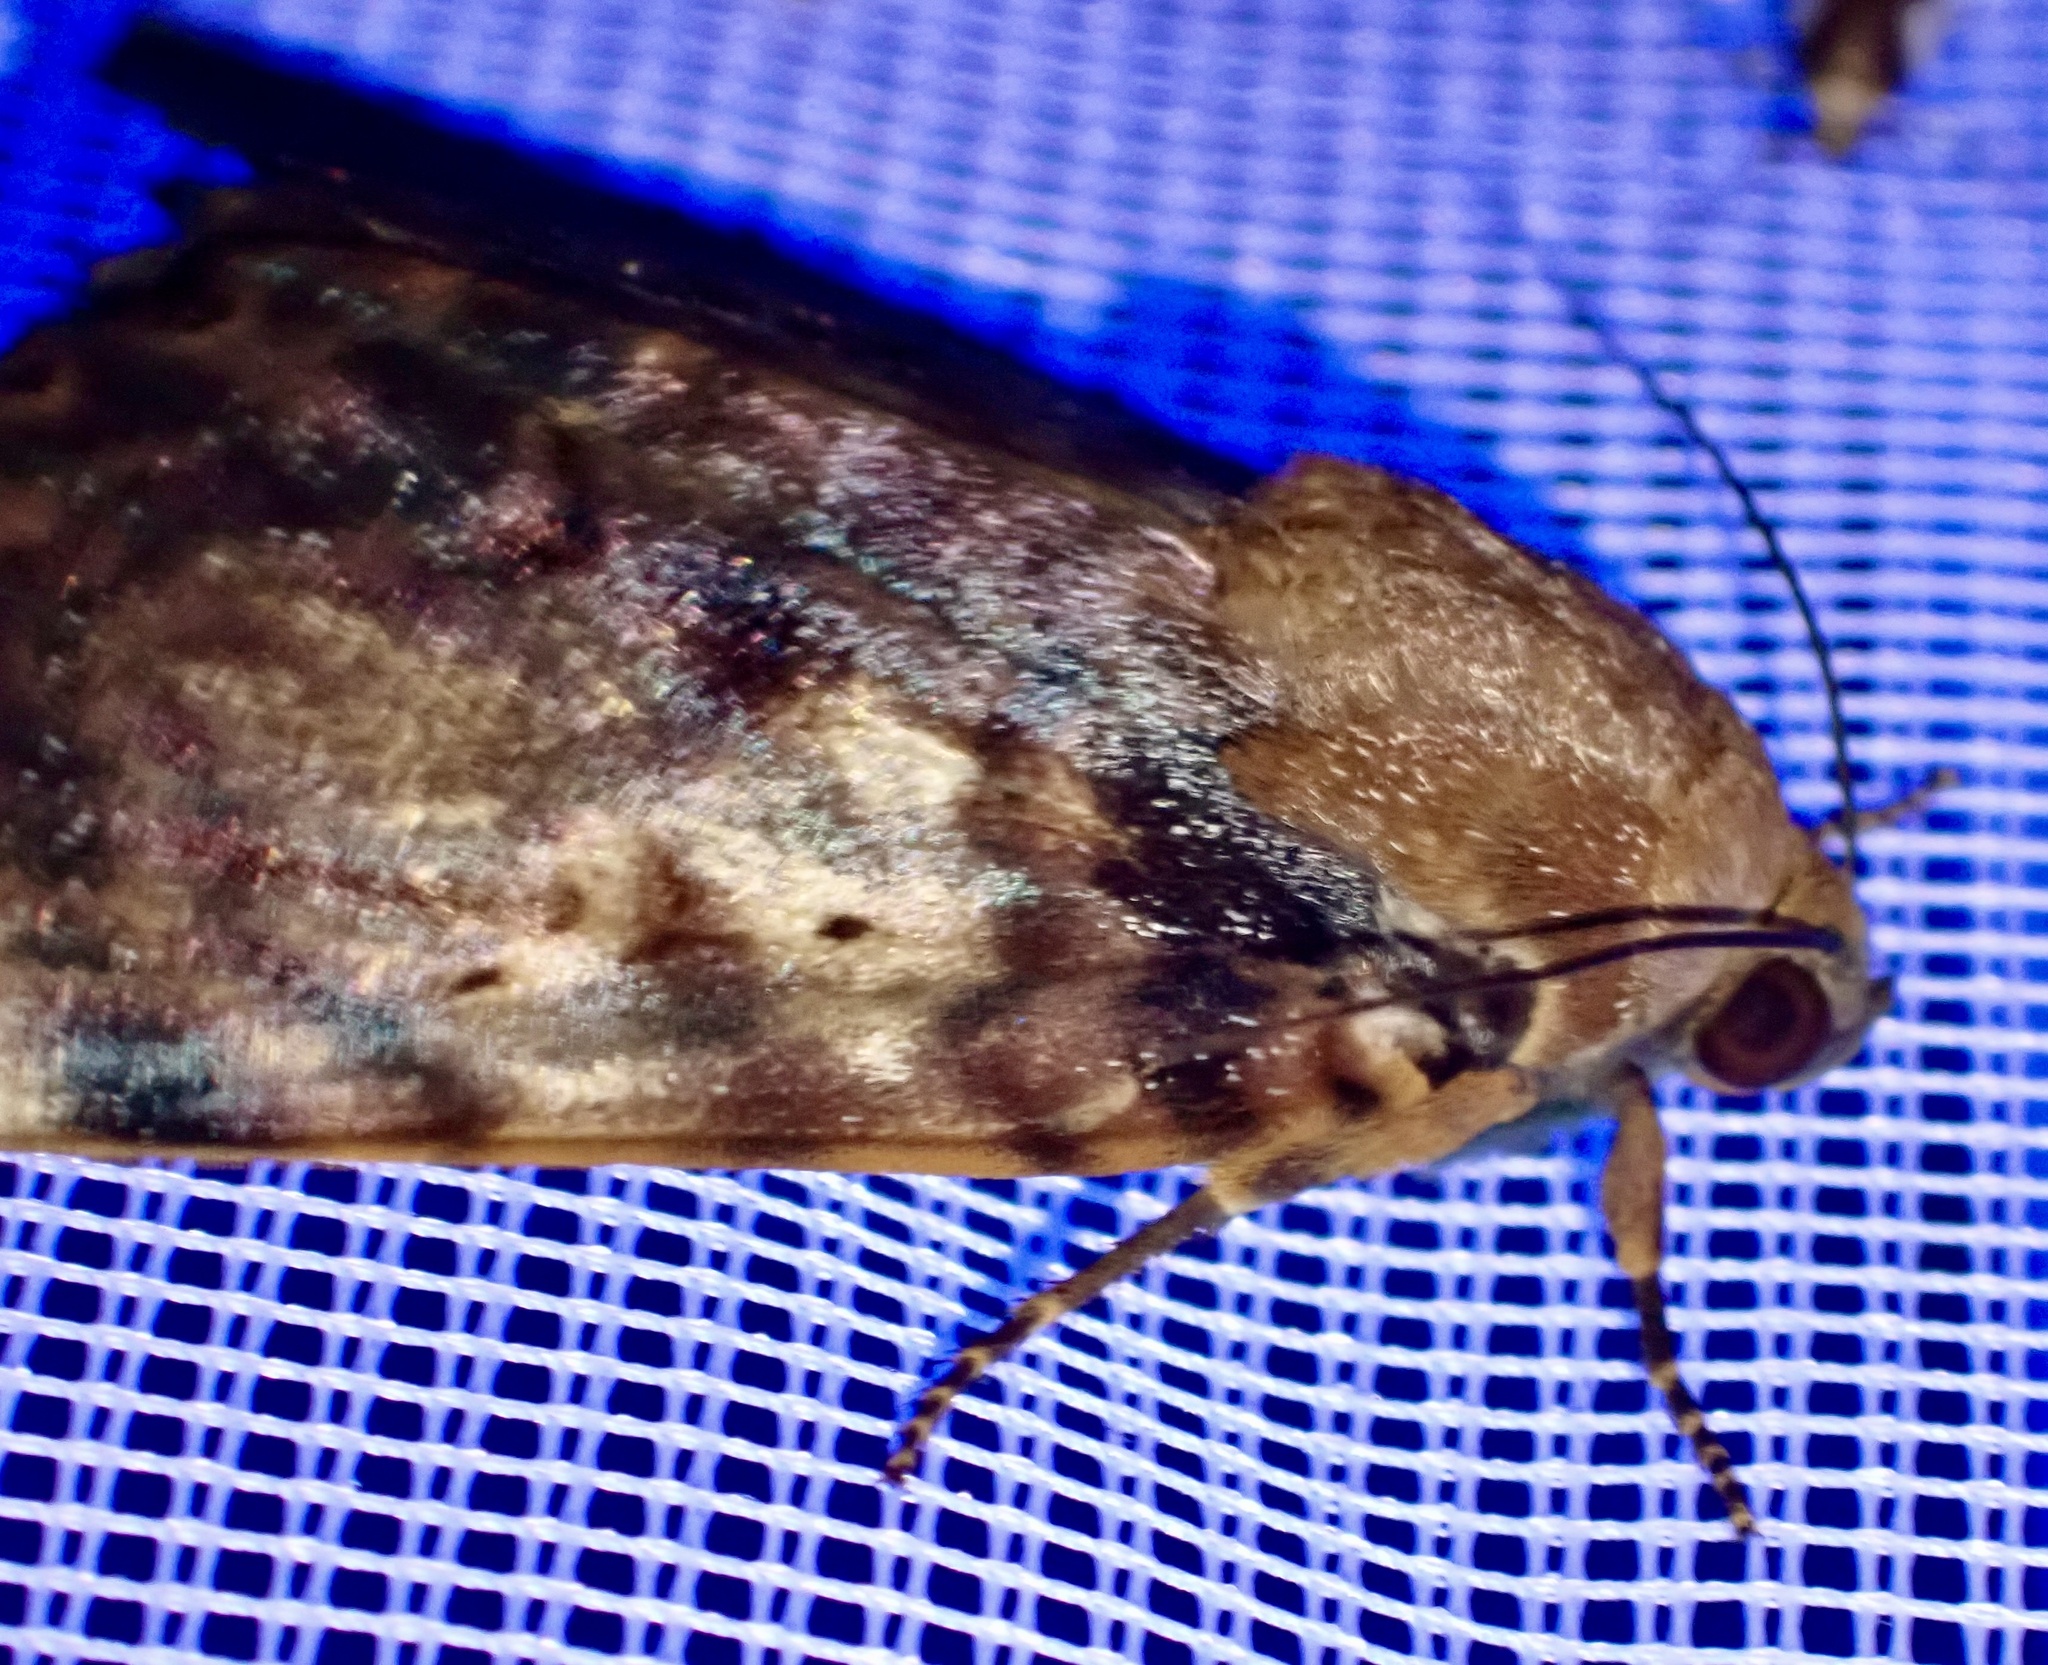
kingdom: Animalia
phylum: Arthropoda
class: Insecta
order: Lepidoptera
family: Erebidae
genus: Arcte
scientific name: Arcte coerula
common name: Ramie moth
